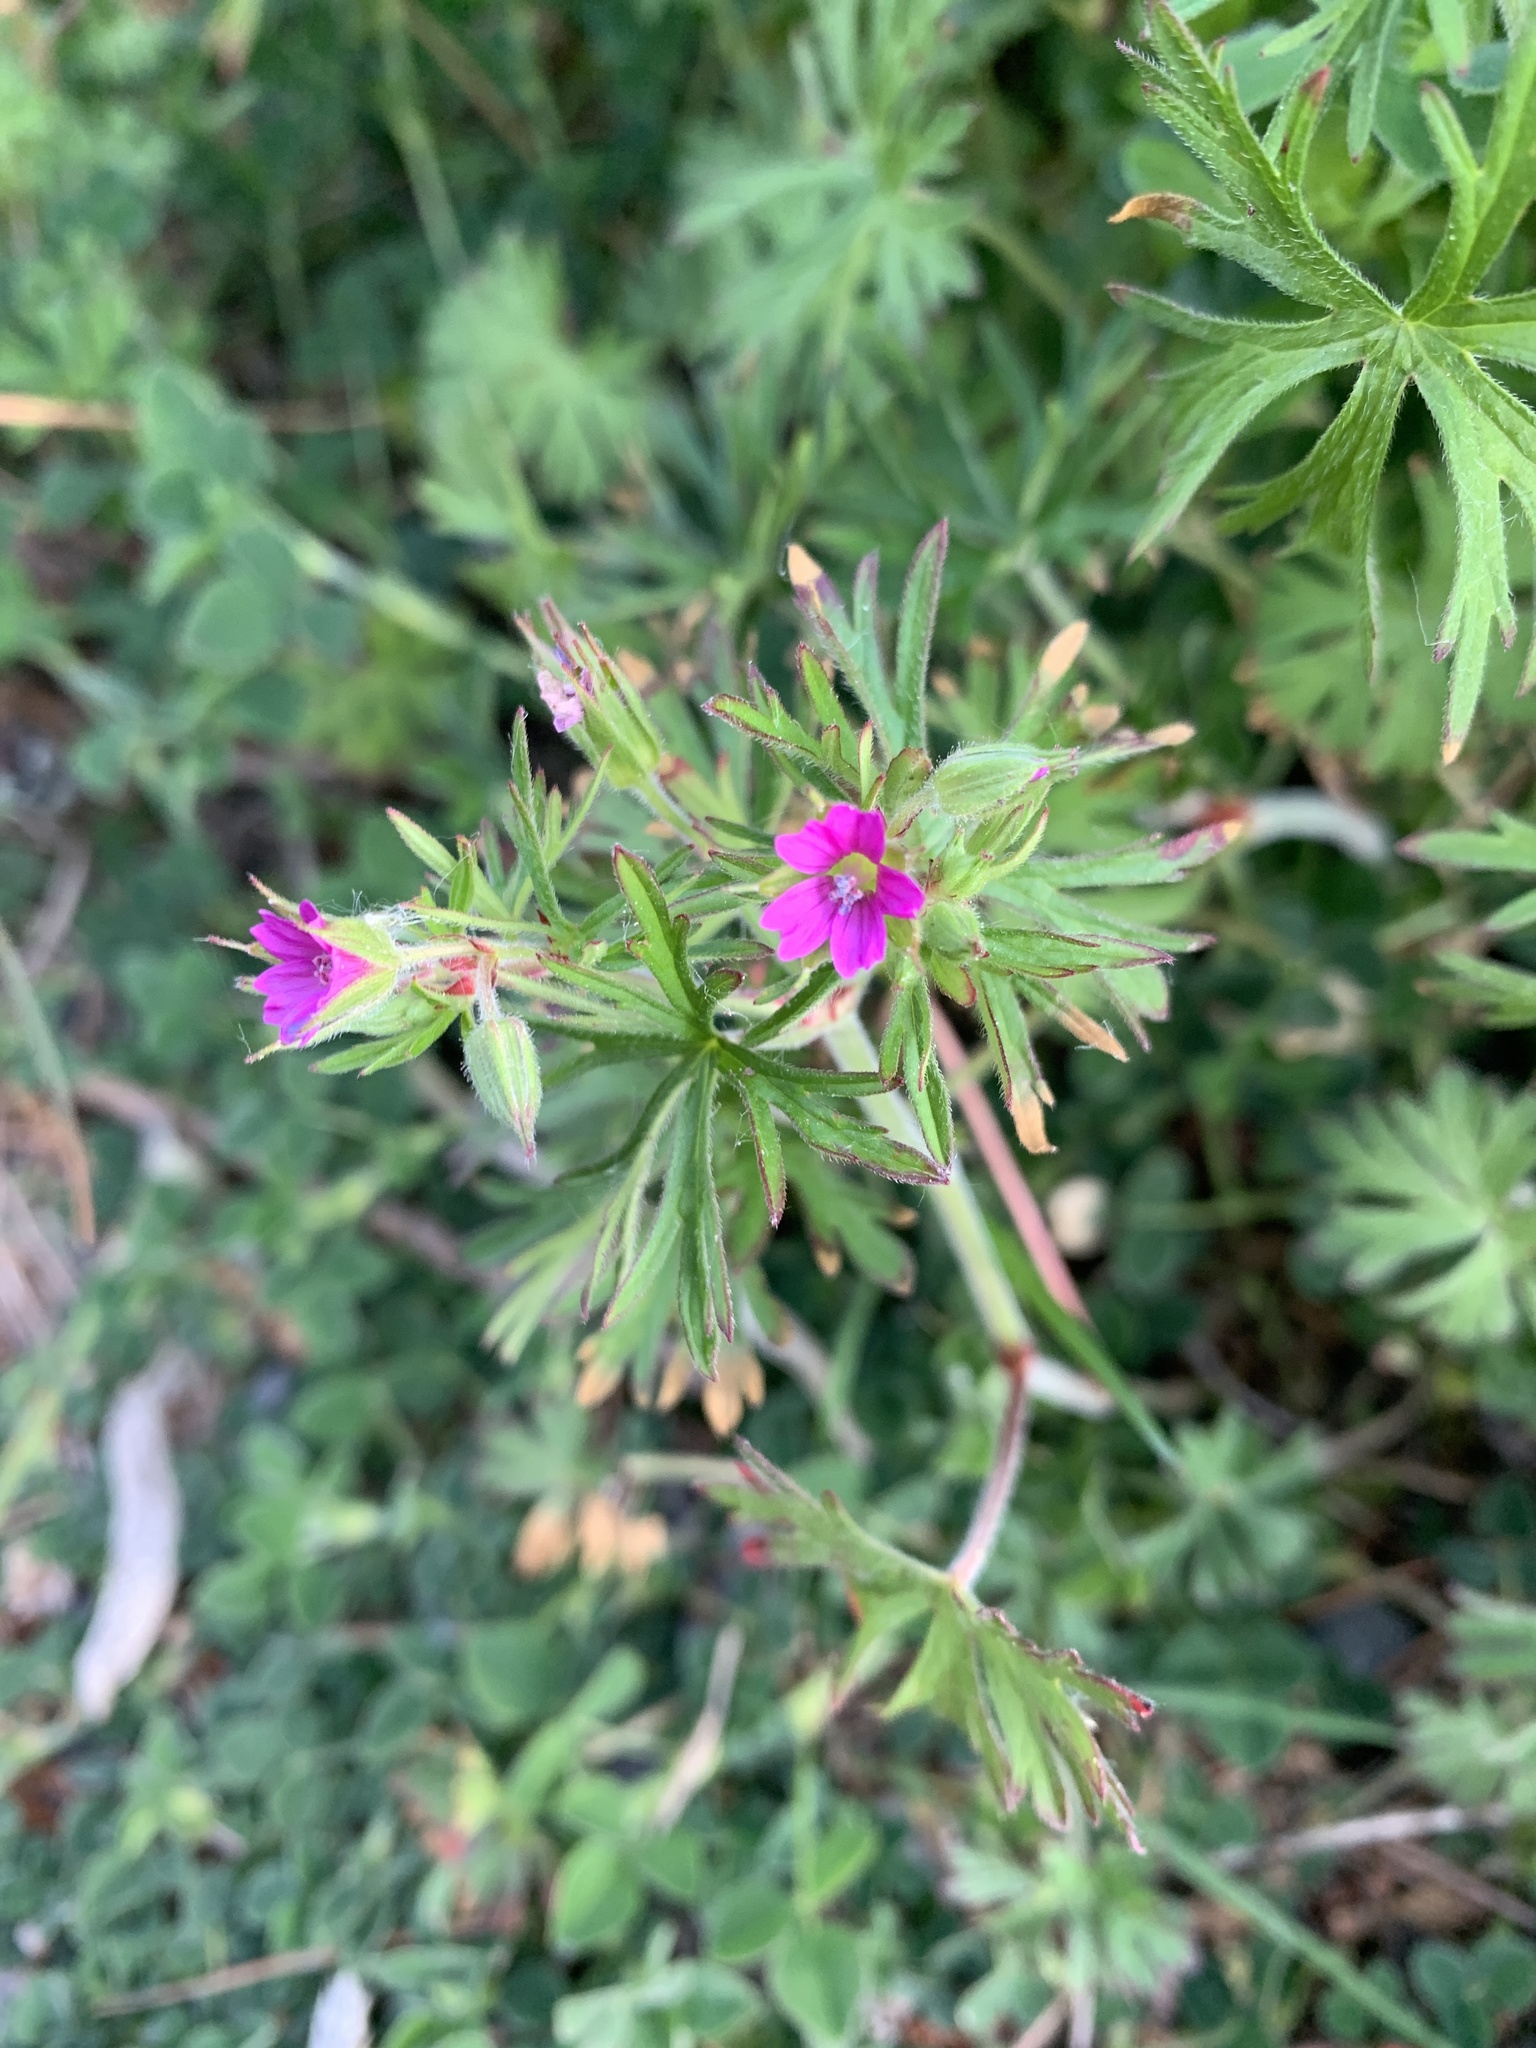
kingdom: Plantae
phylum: Tracheophyta
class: Magnoliopsida
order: Geraniales
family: Geraniaceae
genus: Geranium
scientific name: Geranium dissectum
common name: Cut-leaved crane's-bill
